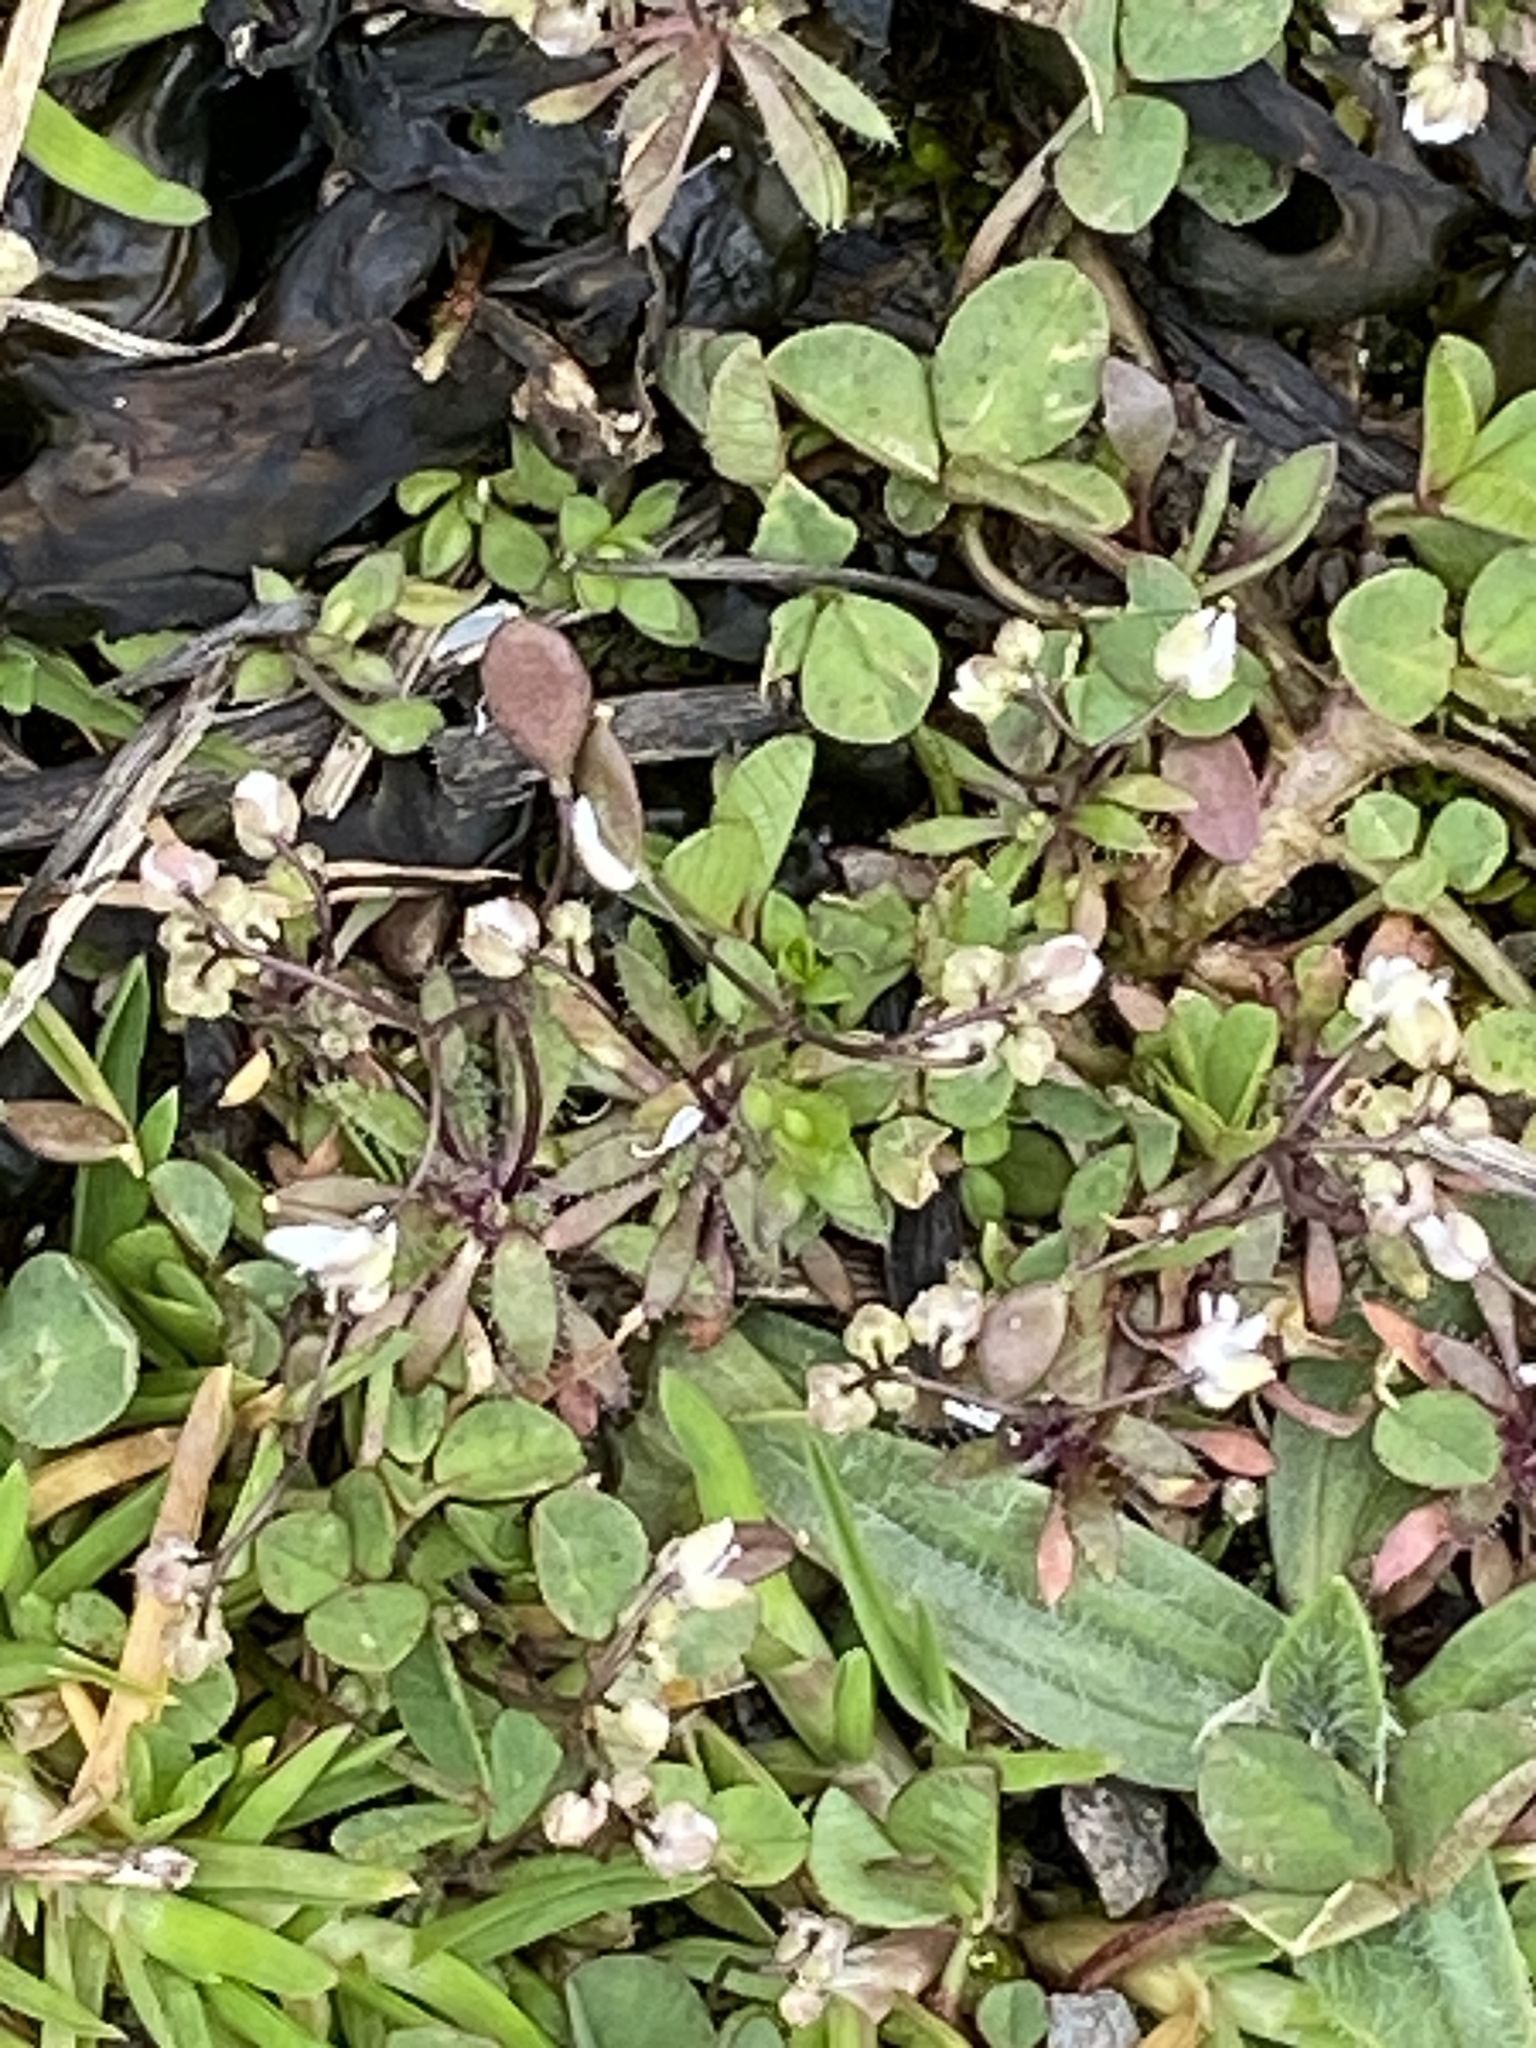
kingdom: Plantae
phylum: Tracheophyta
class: Magnoliopsida
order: Brassicales
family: Brassicaceae
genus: Draba
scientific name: Draba verna
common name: Spring draba
